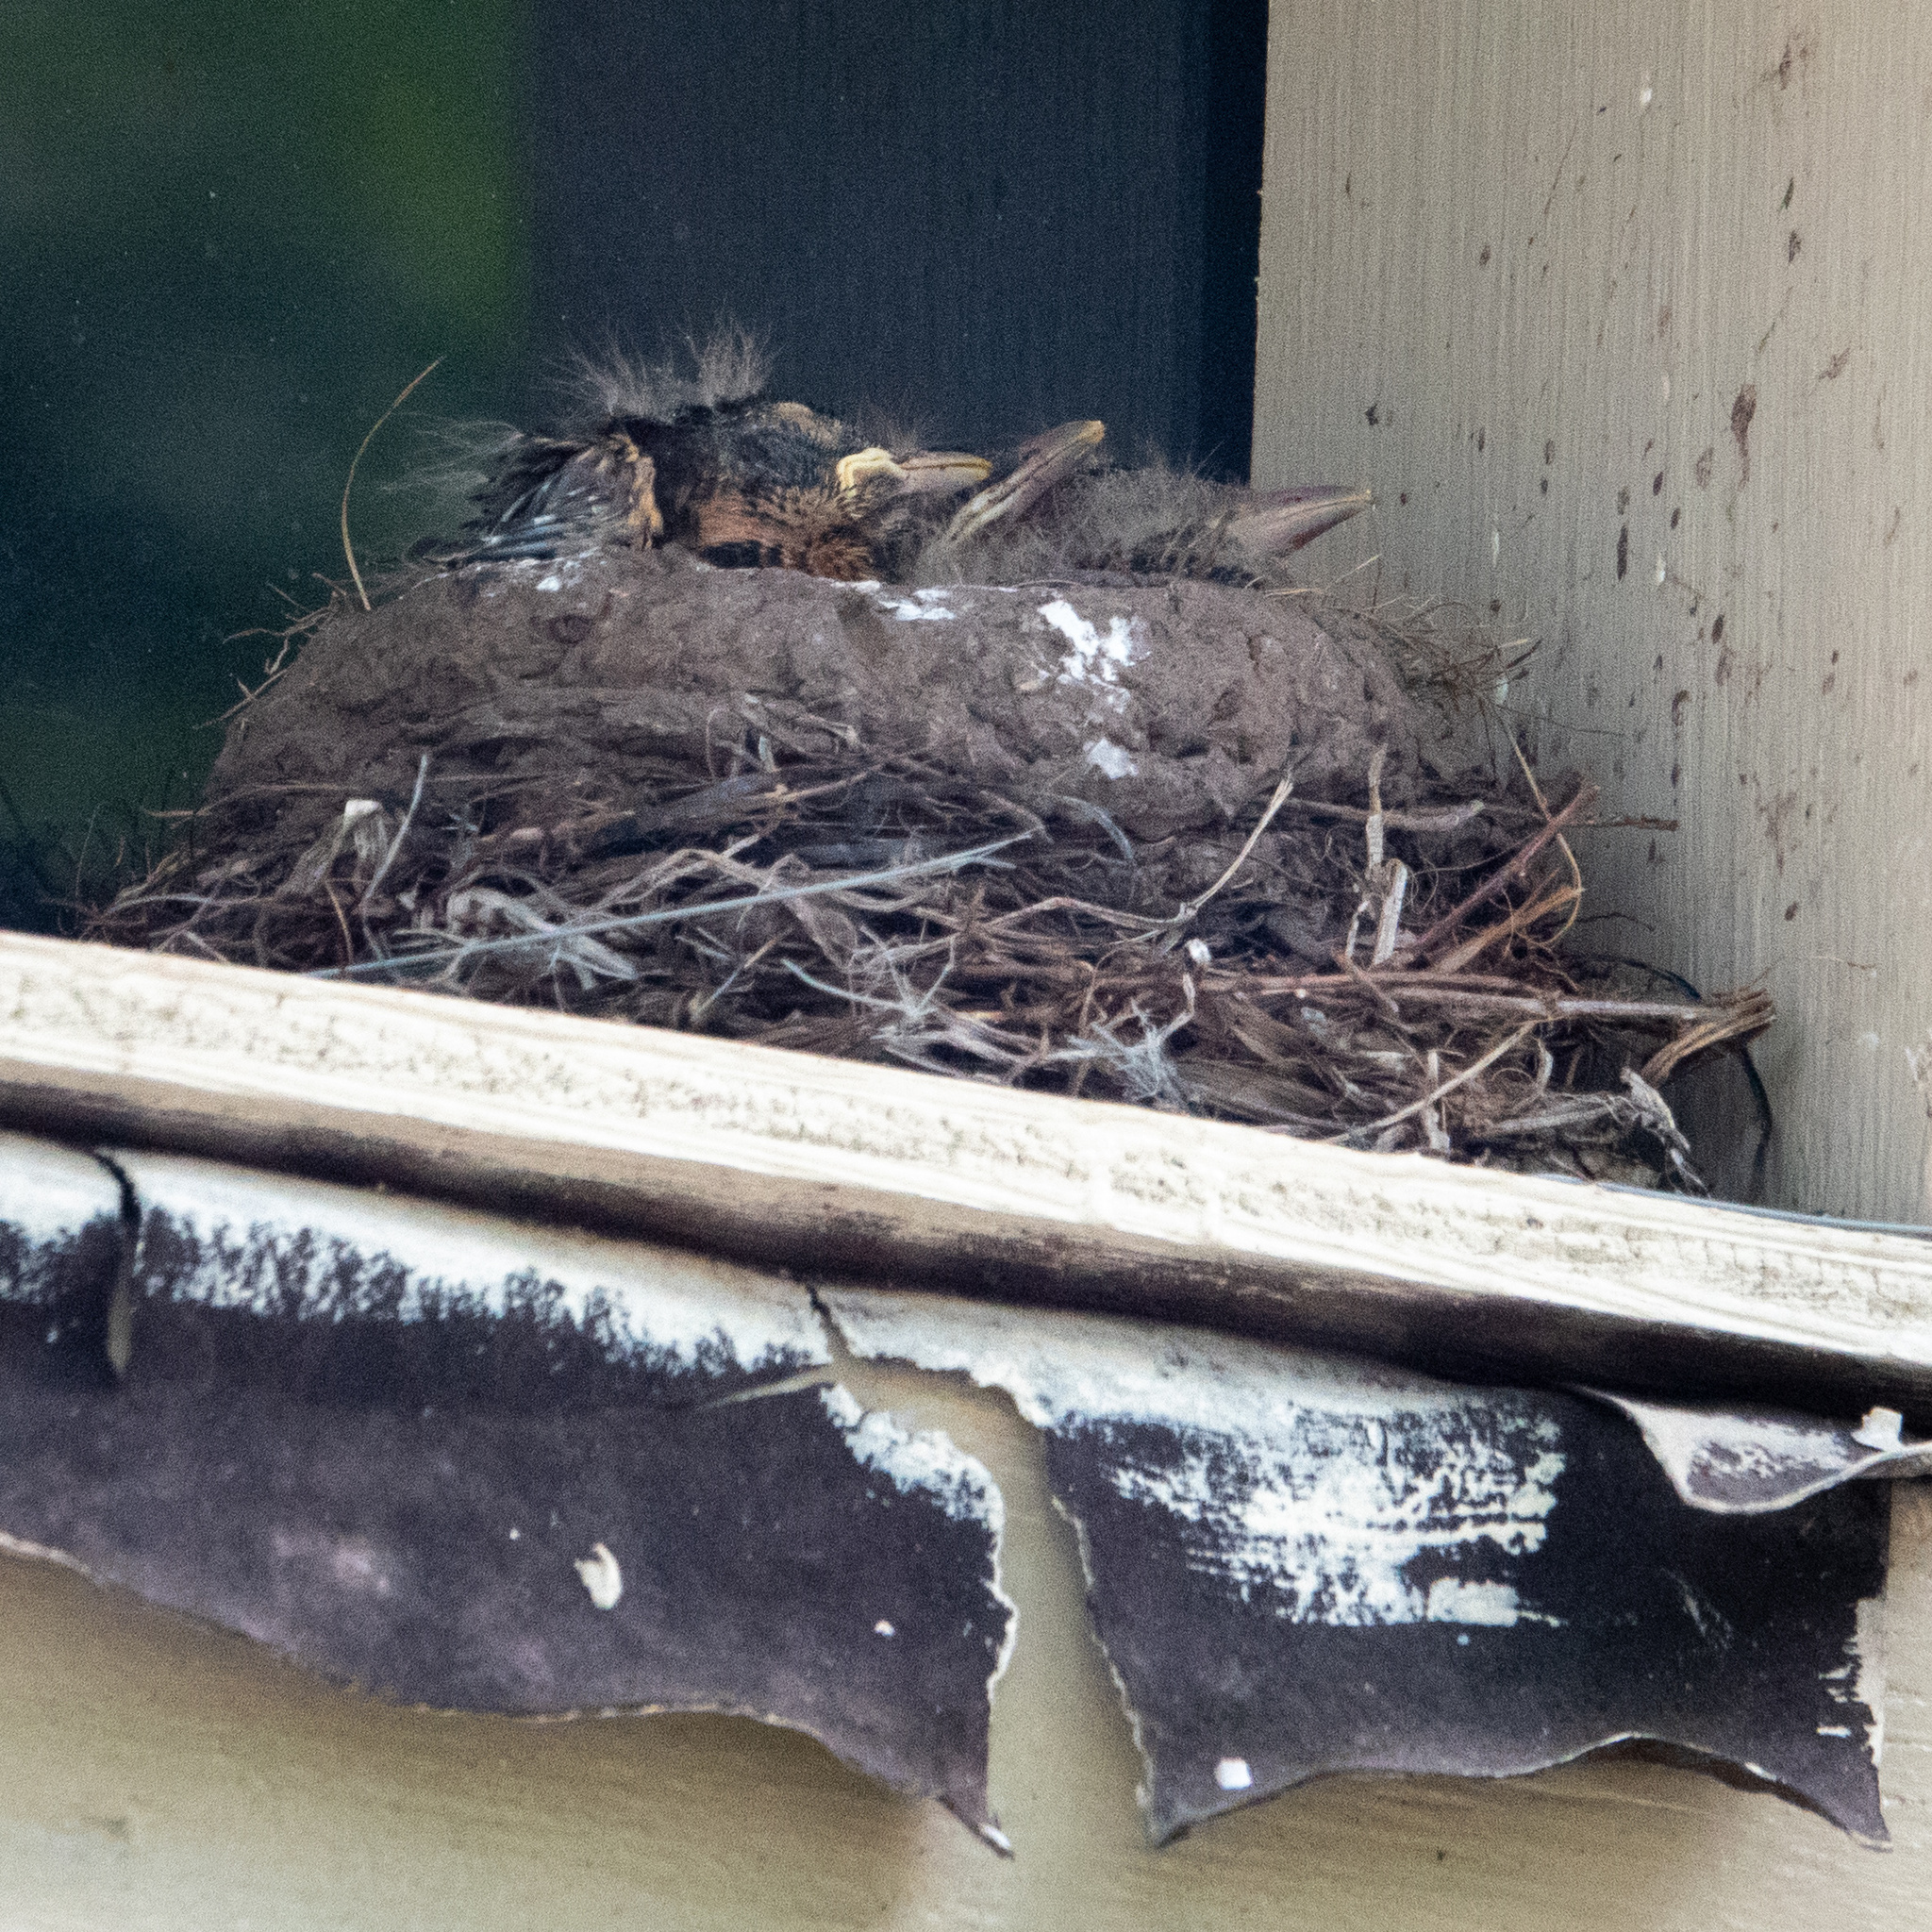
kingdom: Animalia
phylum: Chordata
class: Aves
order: Passeriformes
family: Turdidae
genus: Turdus
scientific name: Turdus migratorius
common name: American robin
